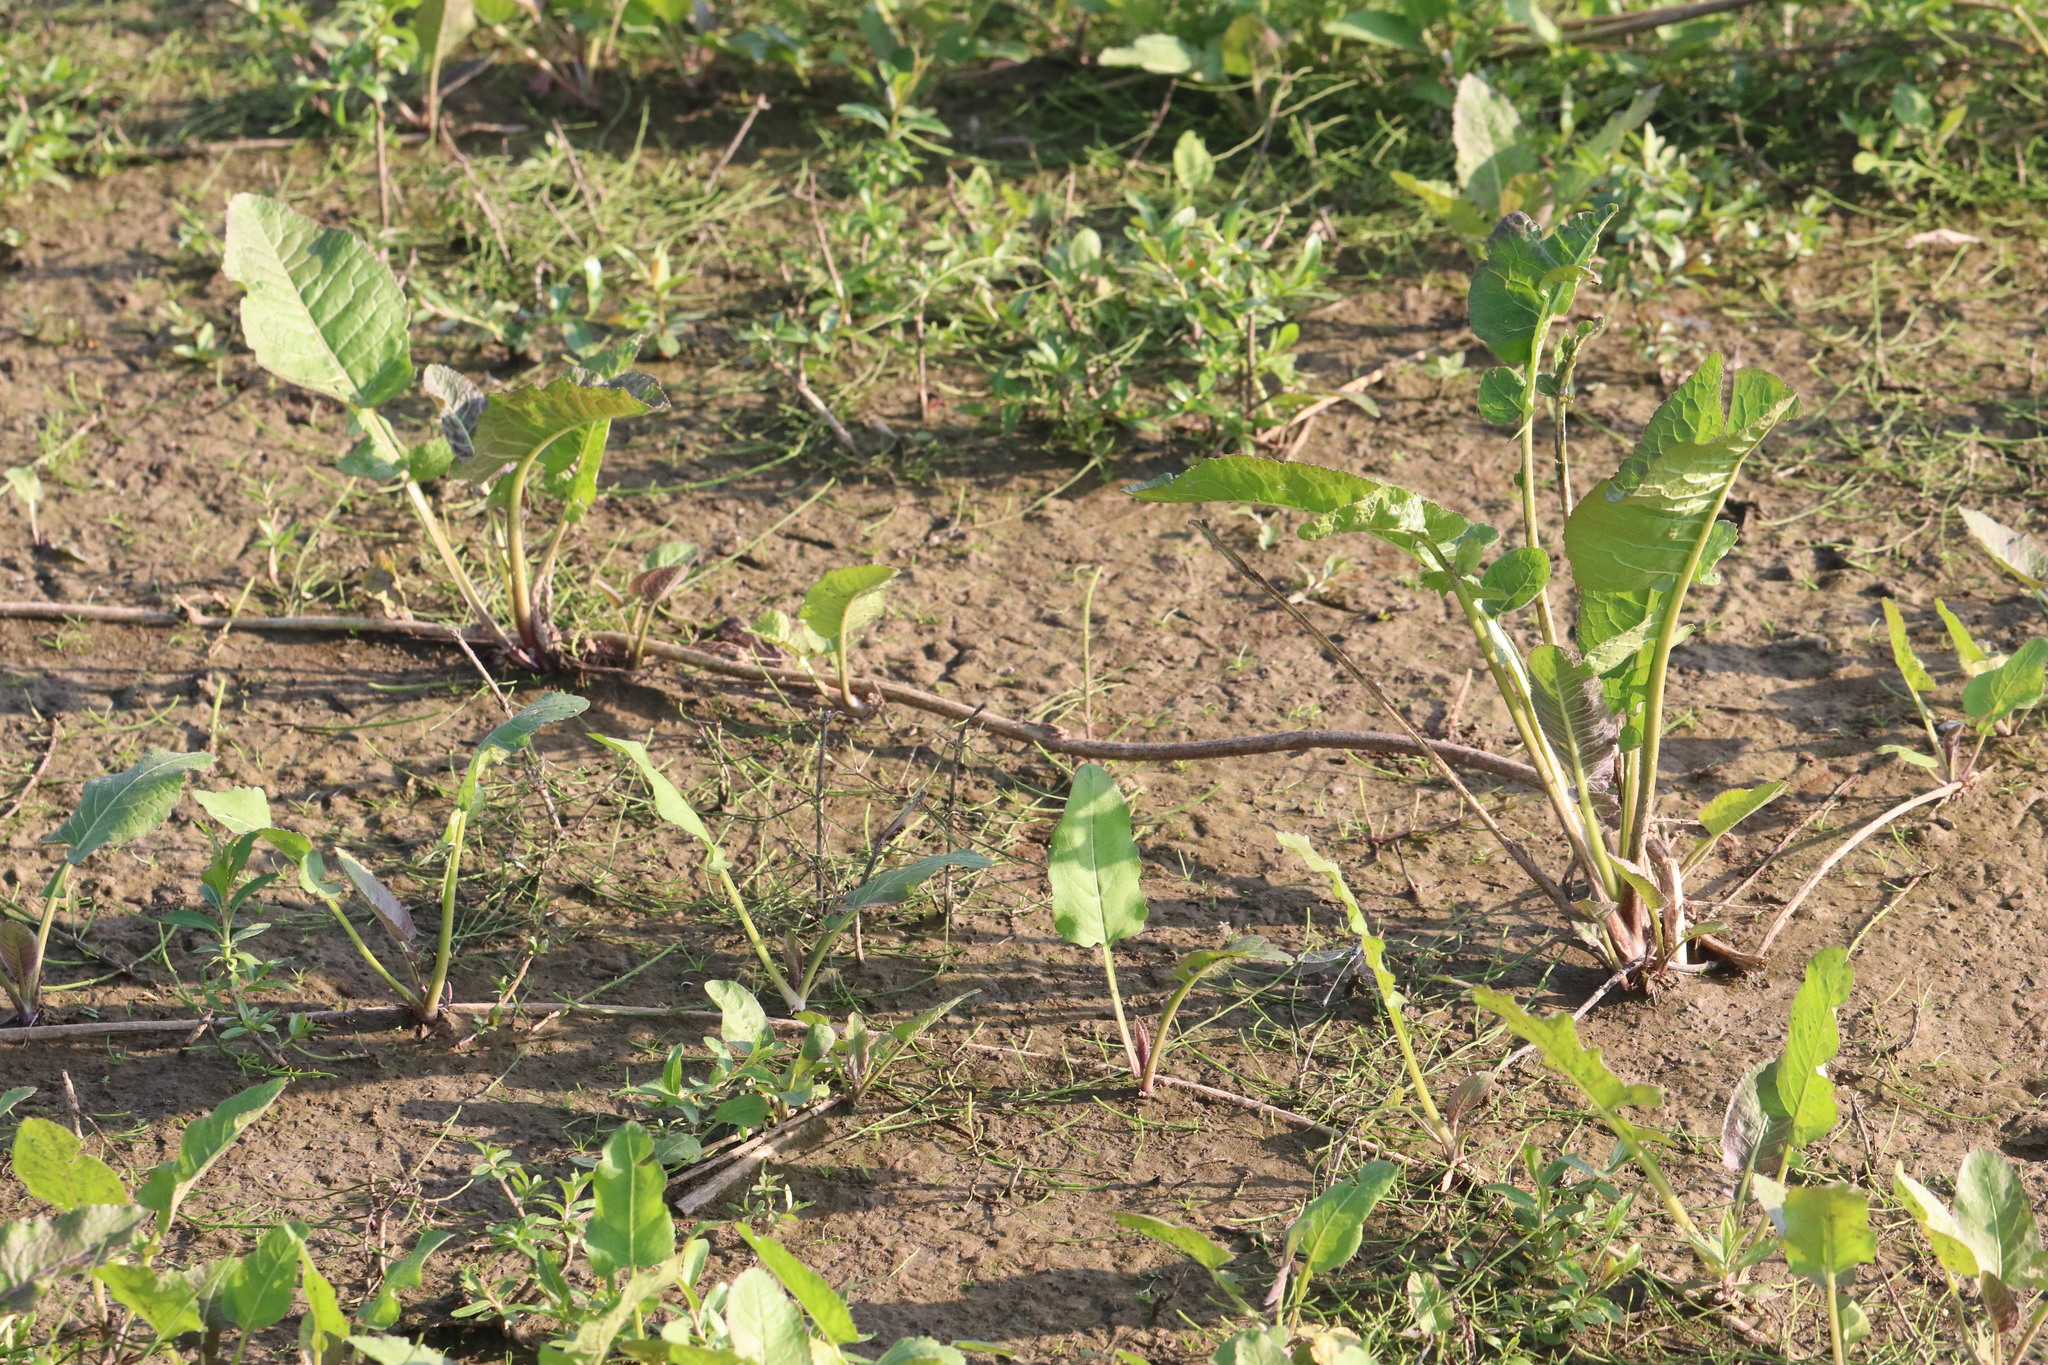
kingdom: Plantae
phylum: Tracheophyta
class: Magnoliopsida
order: Brassicales
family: Brassicaceae
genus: Rorippa
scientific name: Rorippa amphibia
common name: Great yellow-cress
